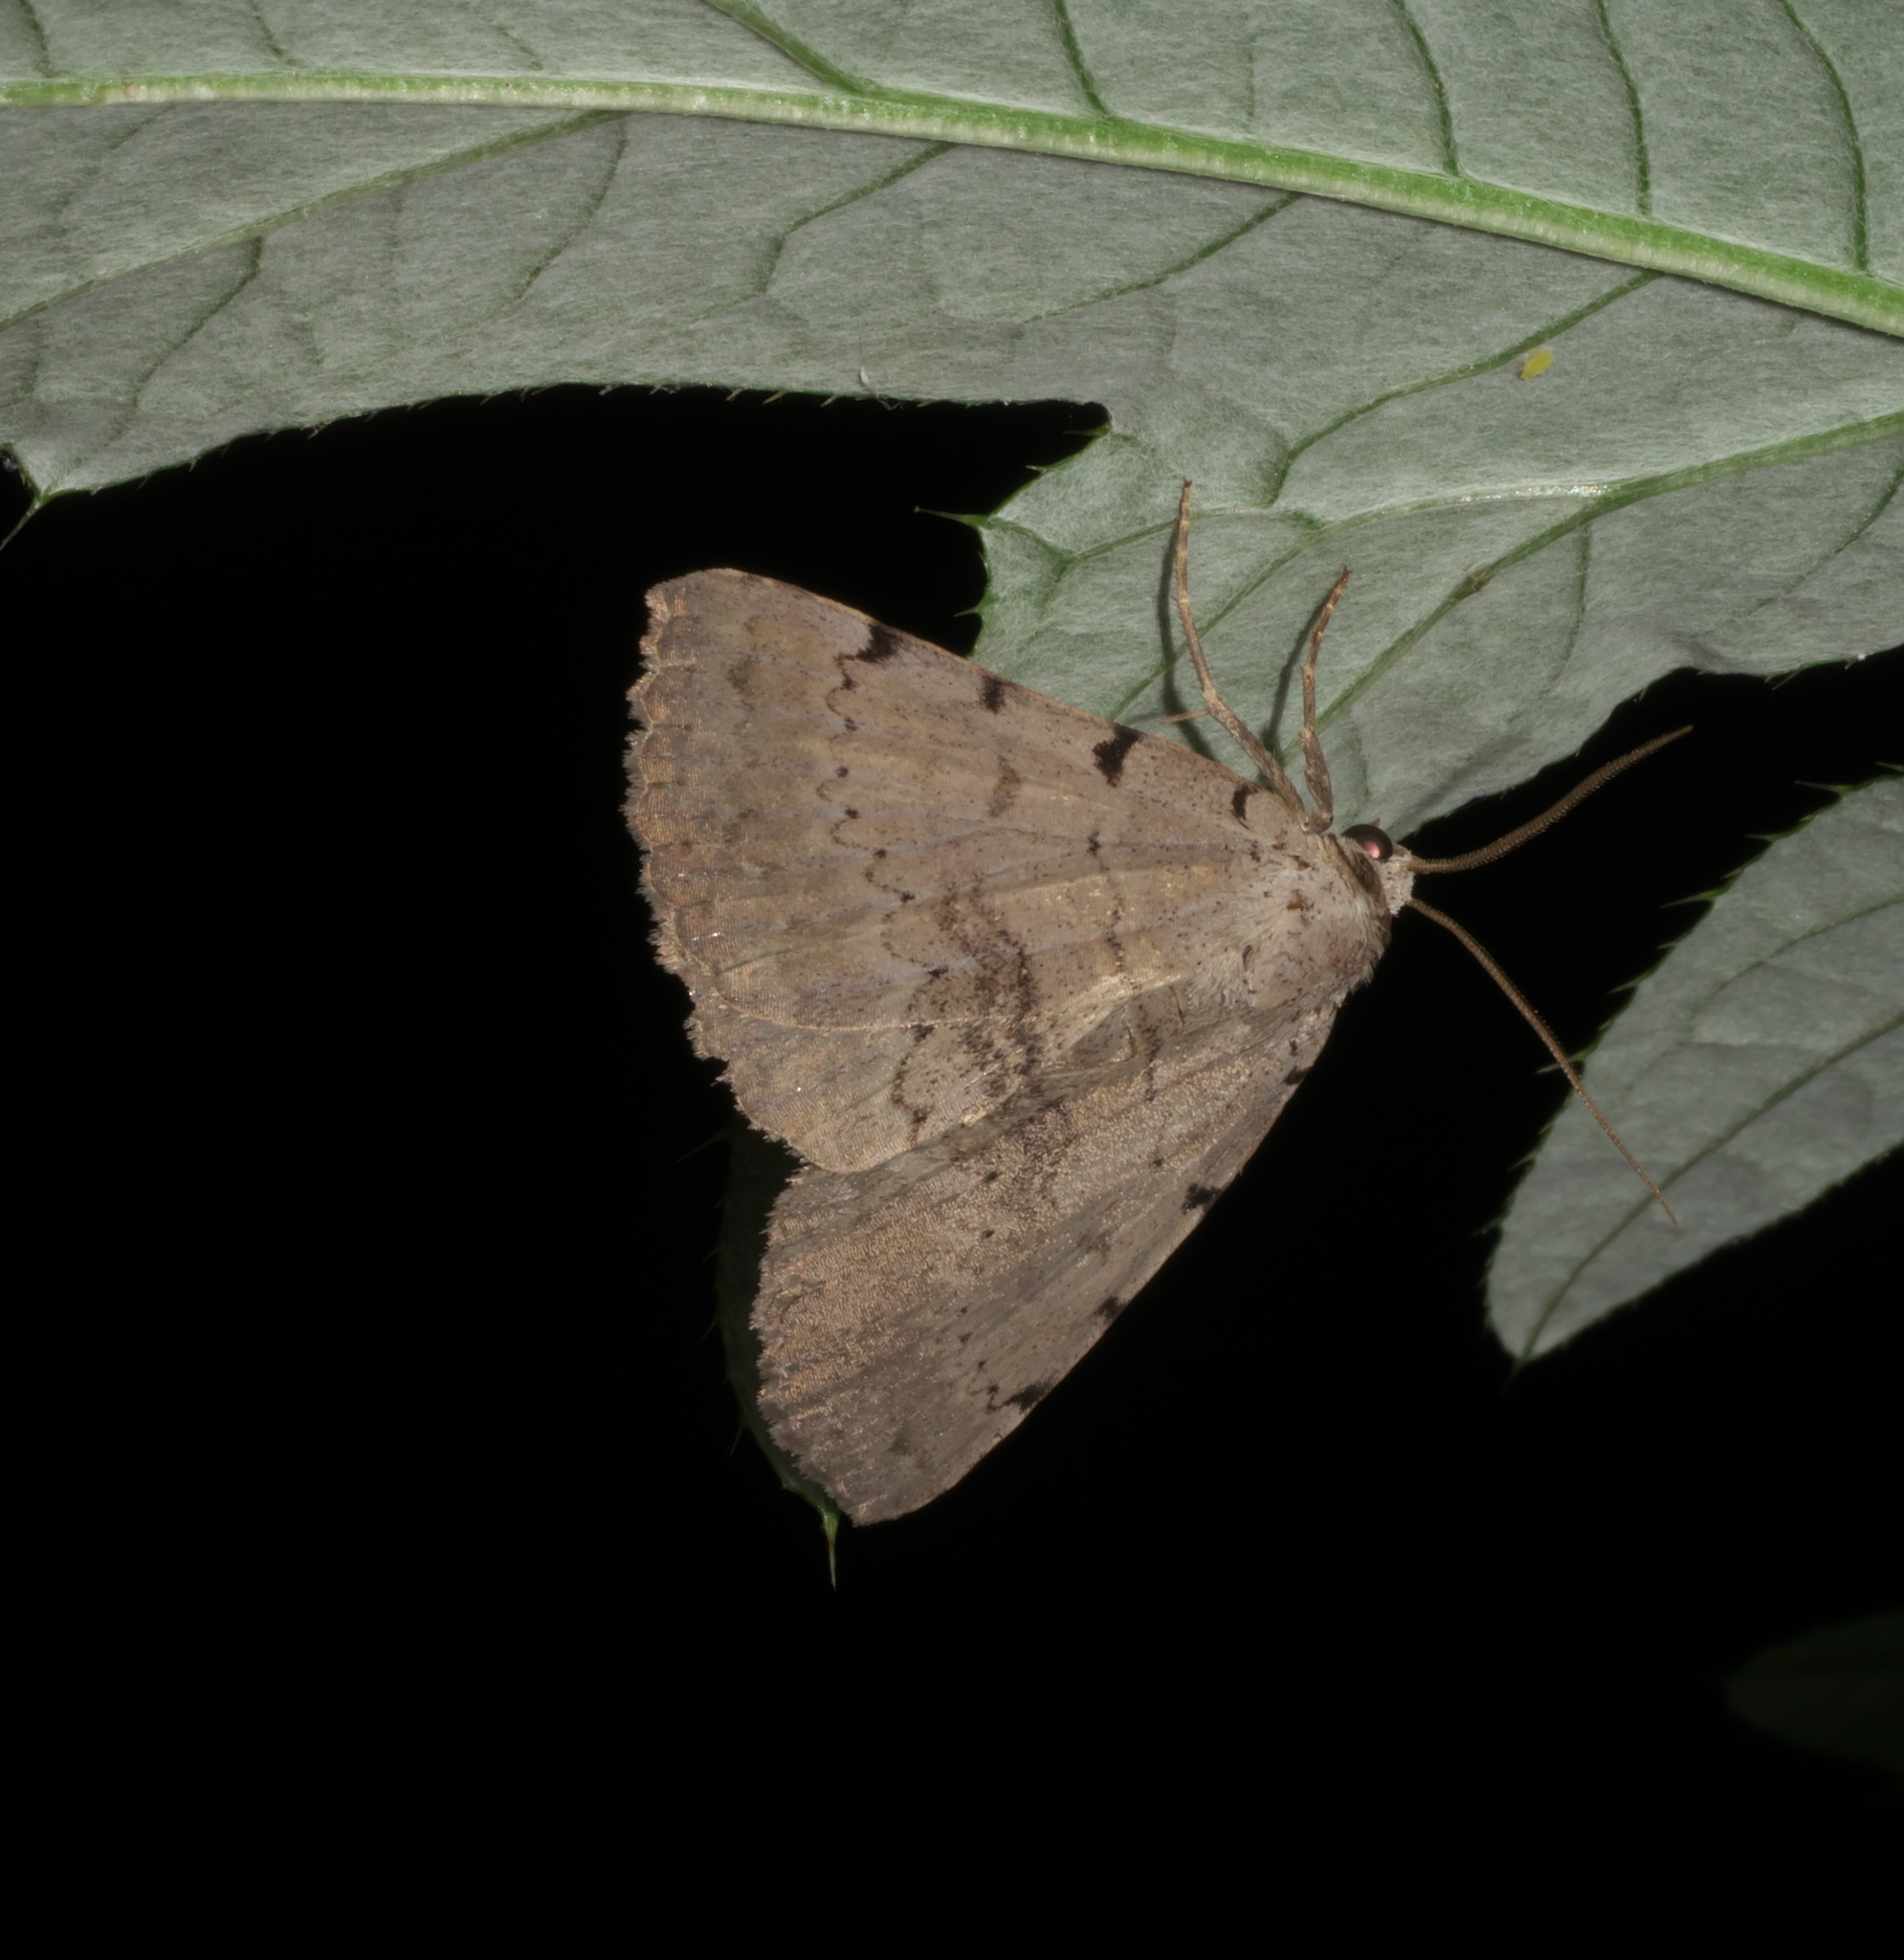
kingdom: Animalia
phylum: Arthropoda
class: Insecta
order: Lepidoptera
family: Erebidae
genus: Spiloloma
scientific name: Spiloloma lunilinea
